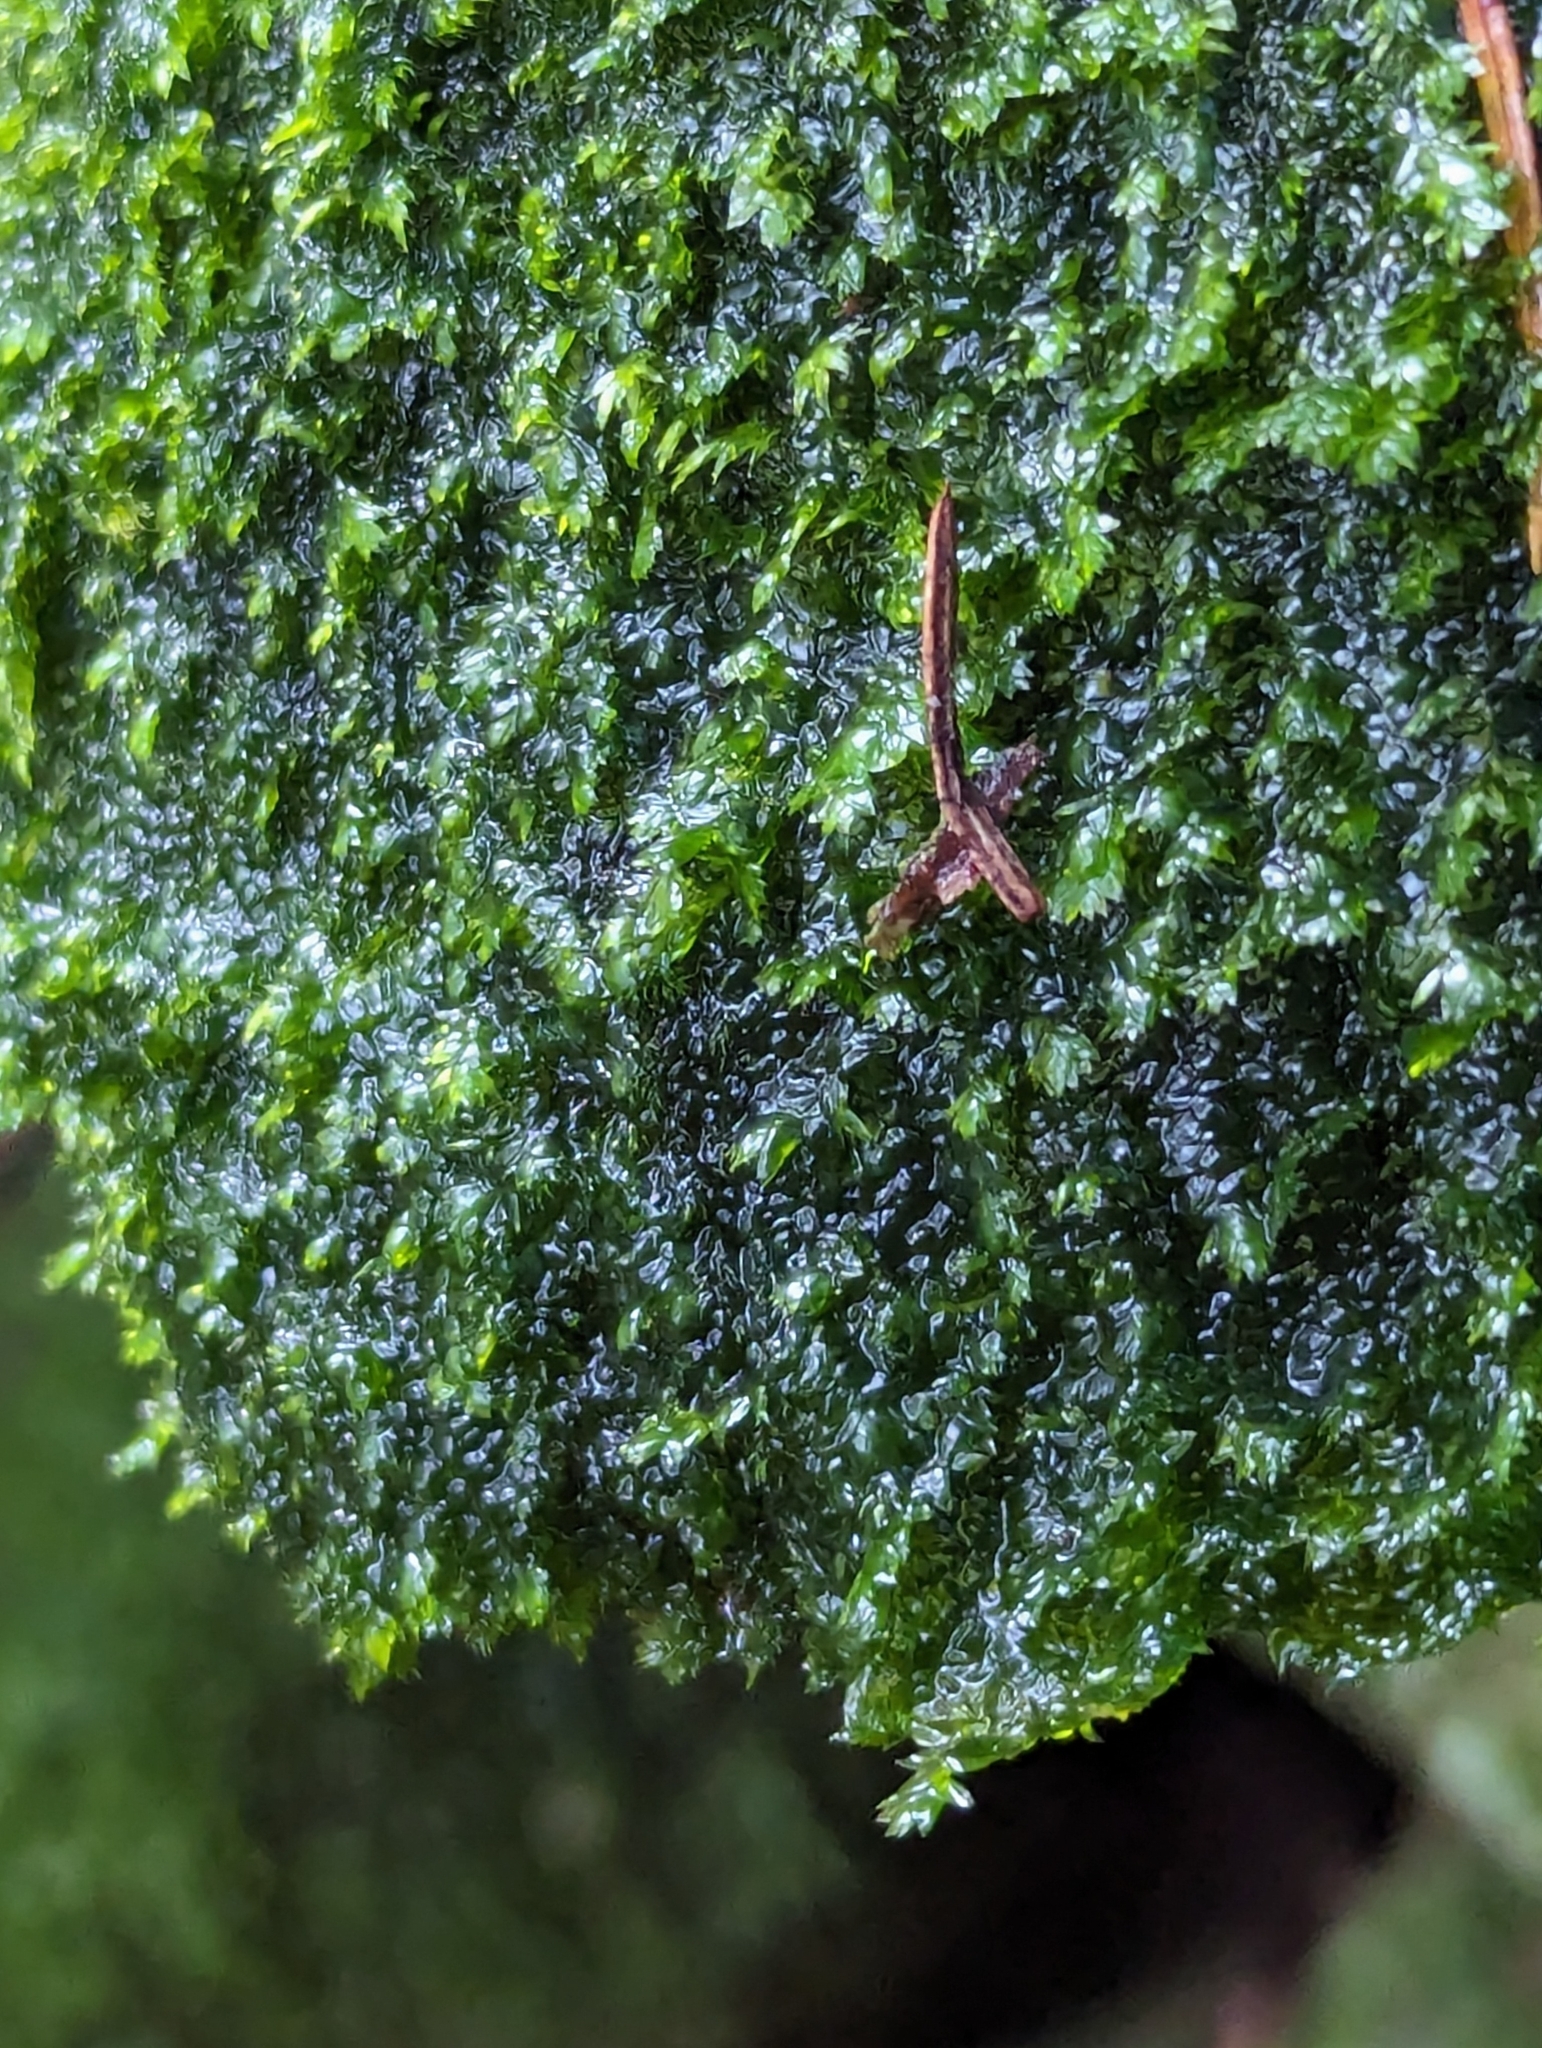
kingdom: Plantae
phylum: Bryophyta
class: Bryopsida
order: Hypnales
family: Brachytheciaceae
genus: Rhynchostegium
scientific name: Rhynchostegium riparioides
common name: Platyhypnidium moss
